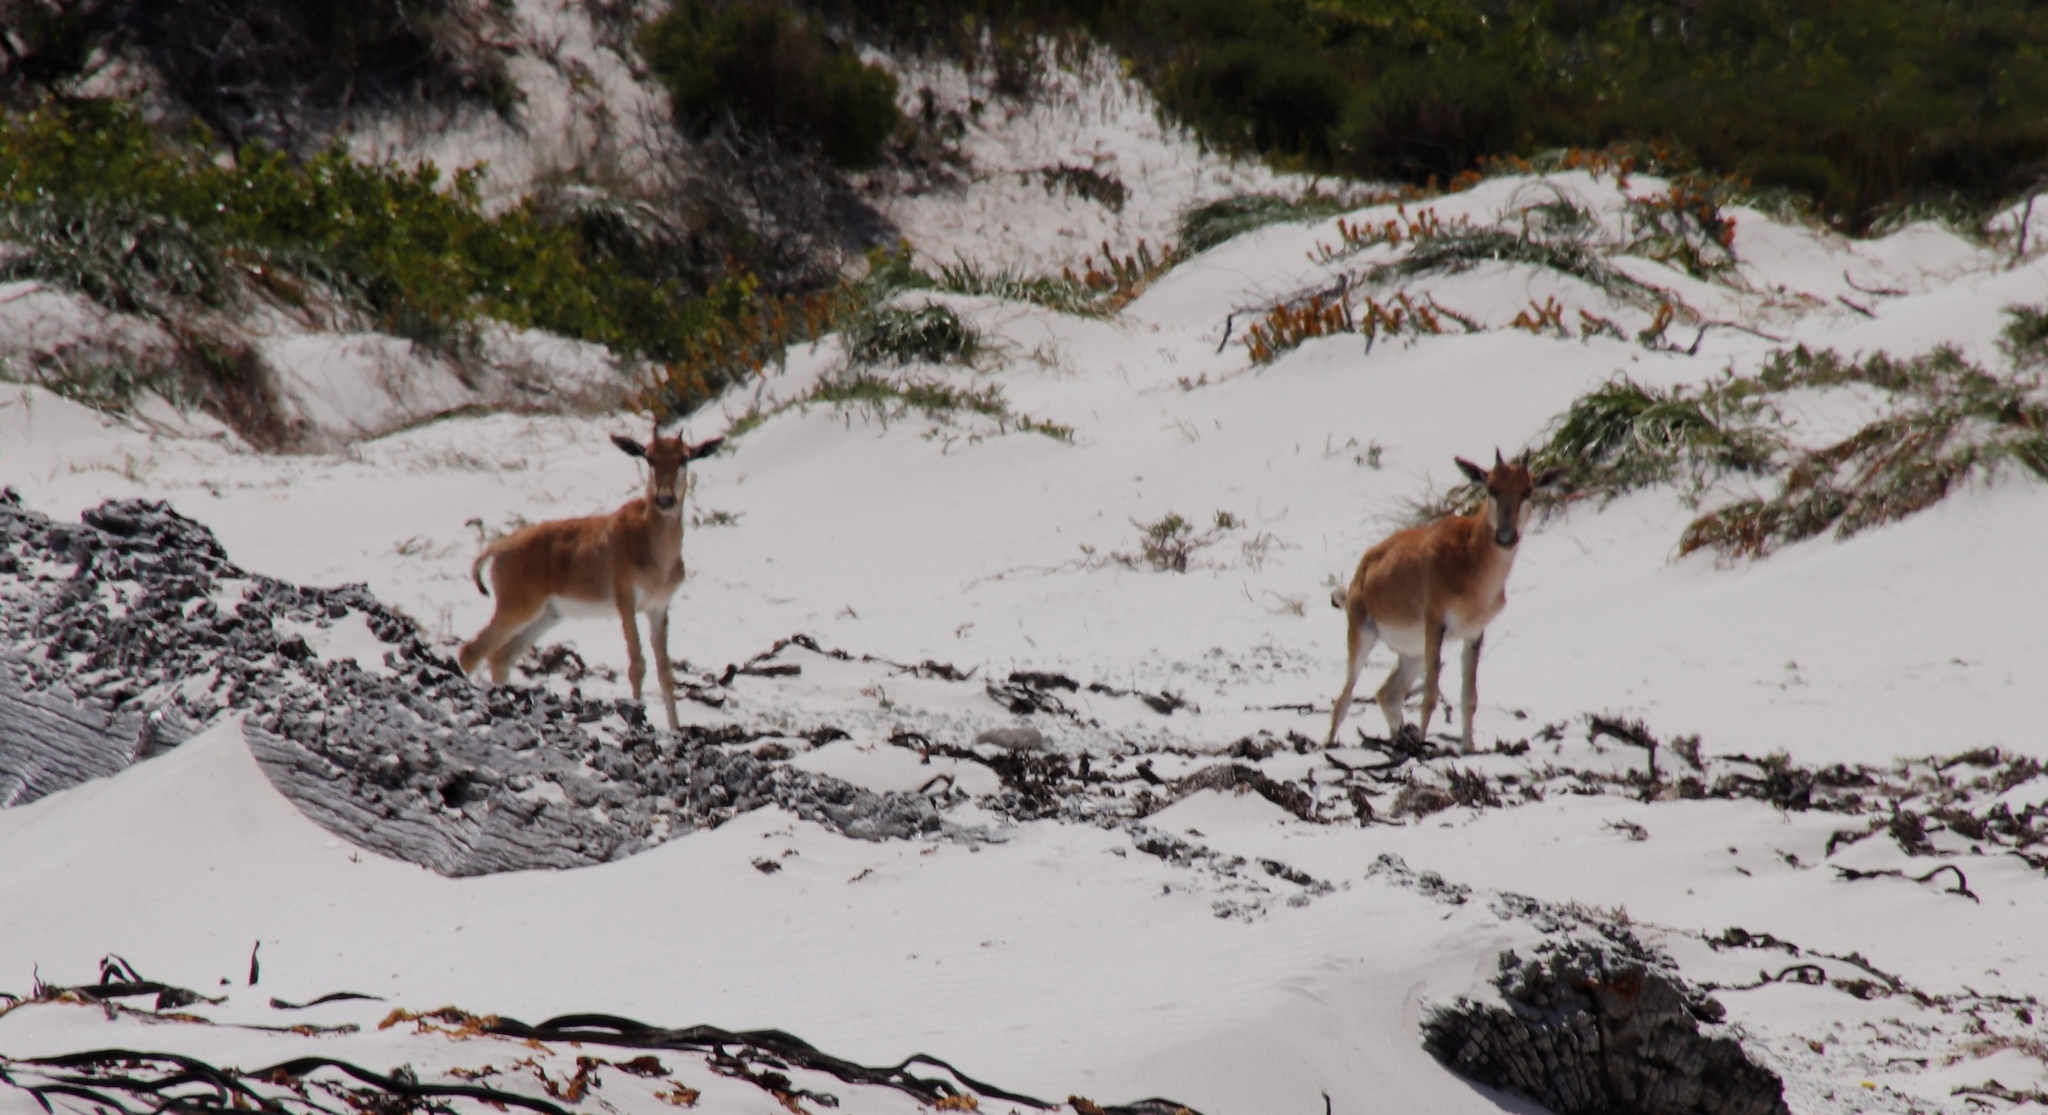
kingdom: Animalia
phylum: Chordata
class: Mammalia
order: Artiodactyla
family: Bovidae
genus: Damaliscus
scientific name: Damaliscus pygargus
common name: Bontebok
